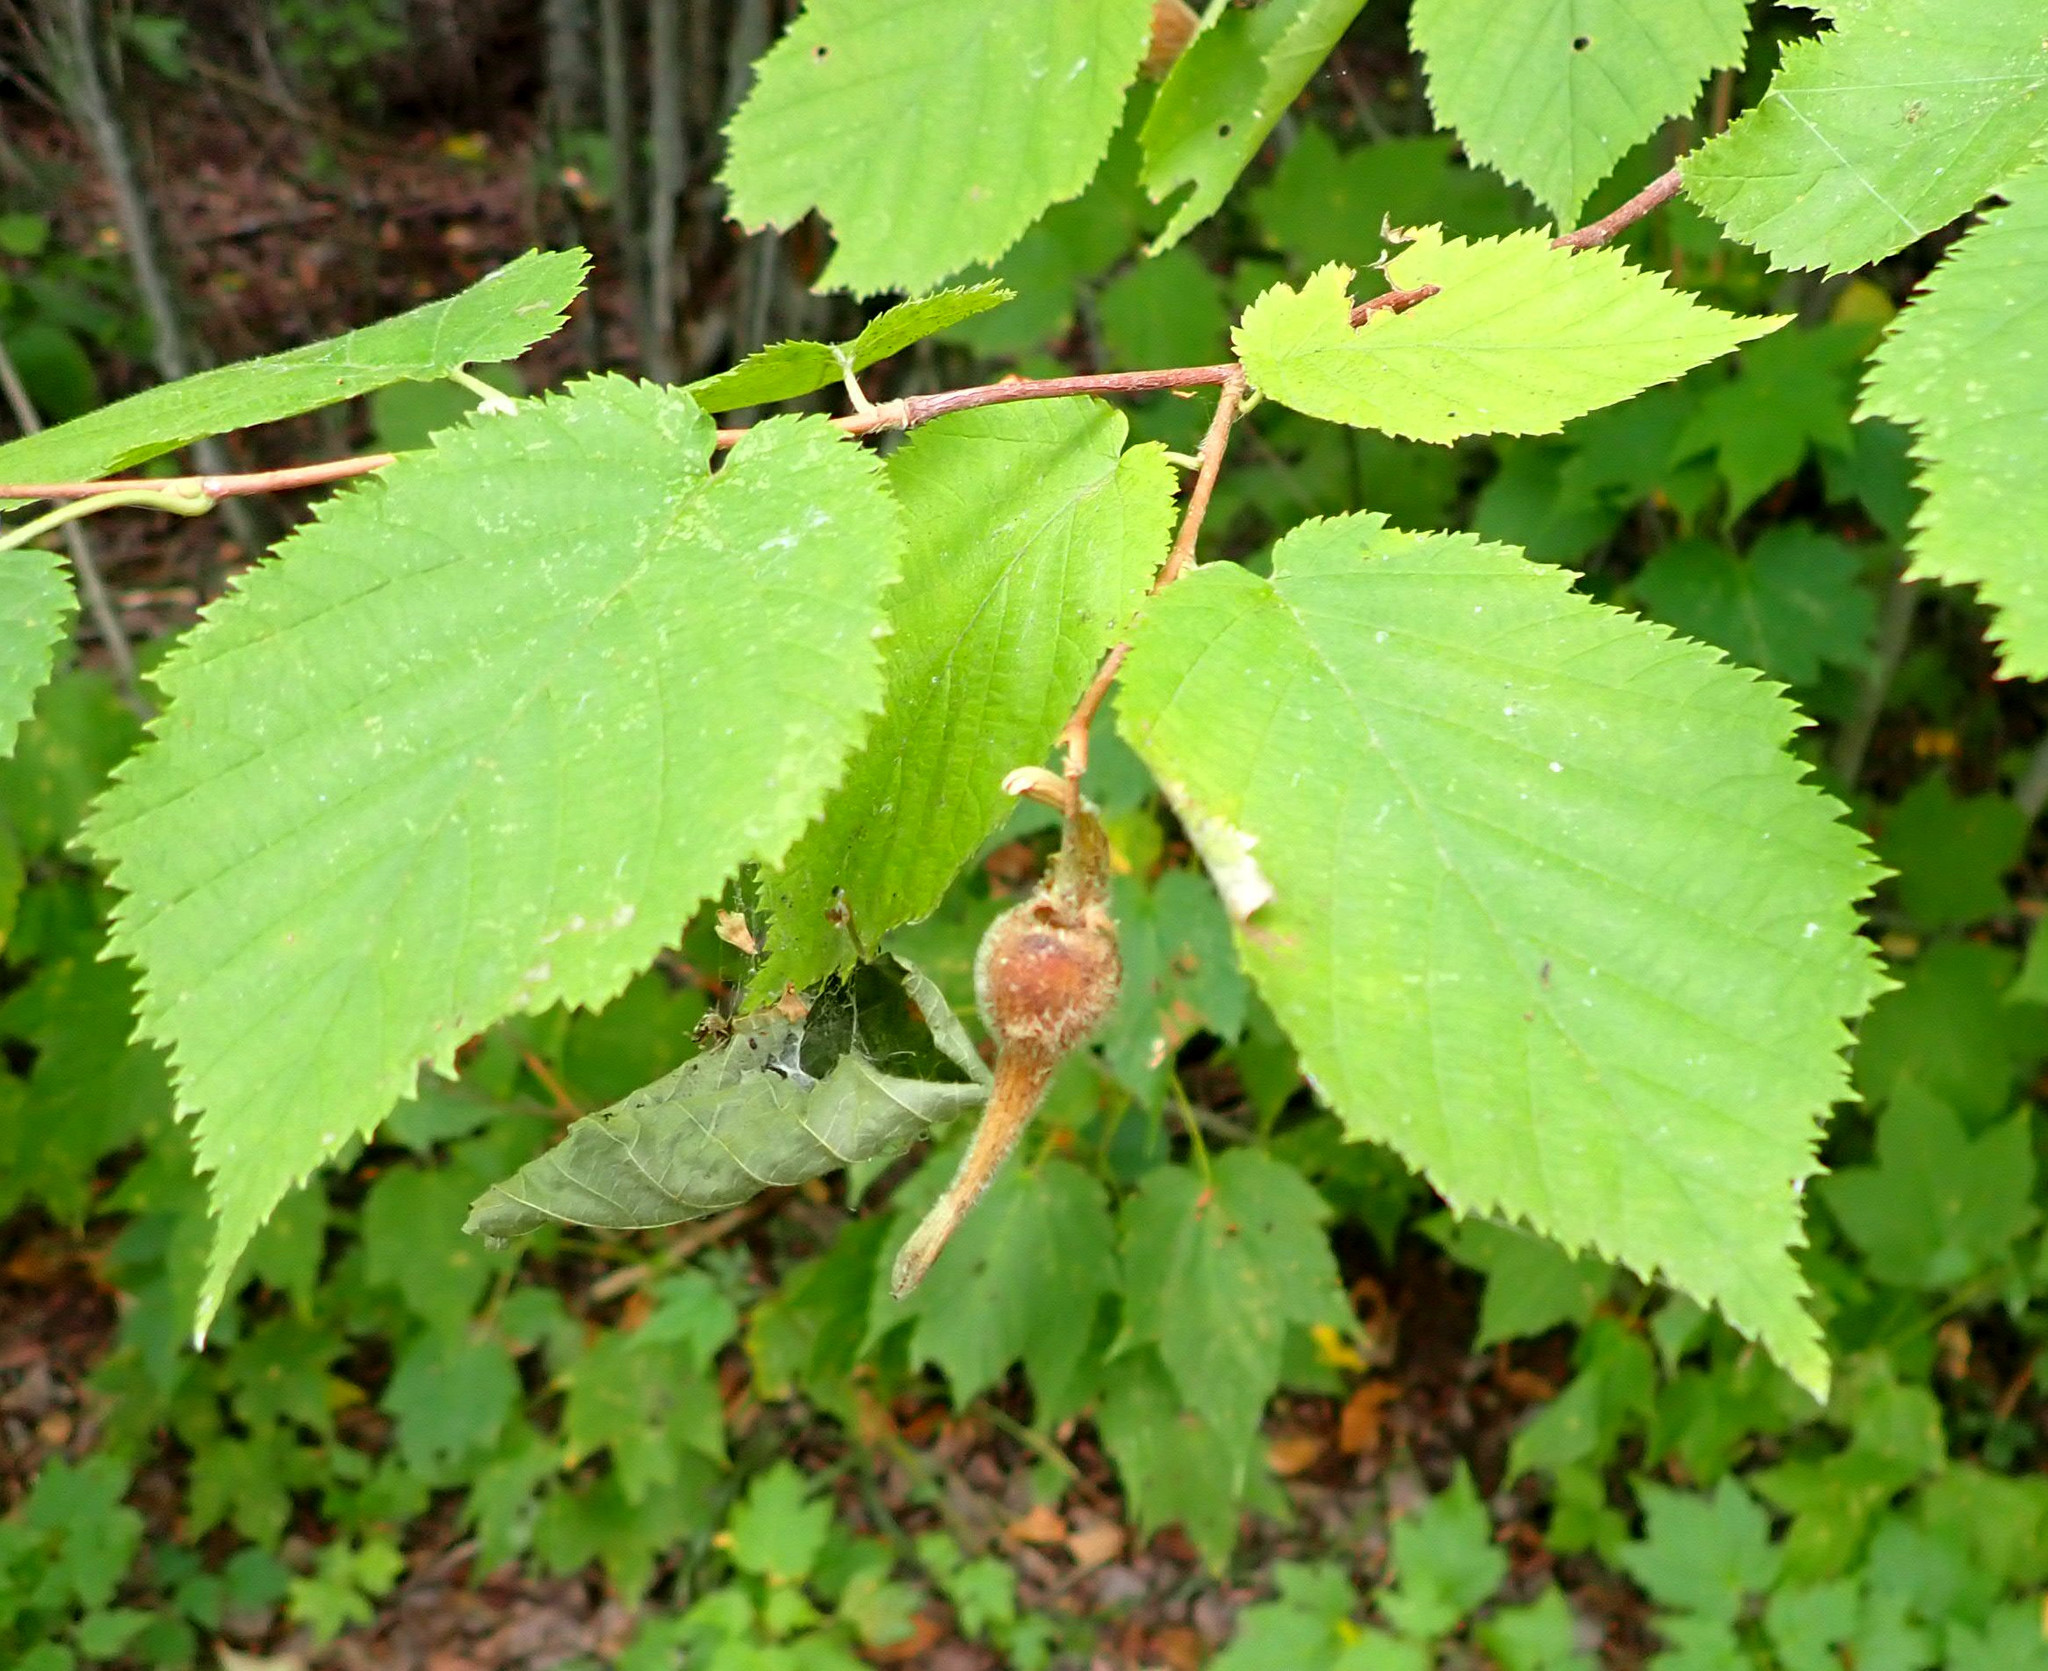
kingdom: Plantae
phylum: Tracheophyta
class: Magnoliopsida
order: Fagales
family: Betulaceae
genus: Corylus
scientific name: Corylus cornuta
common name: Beaked hazel
